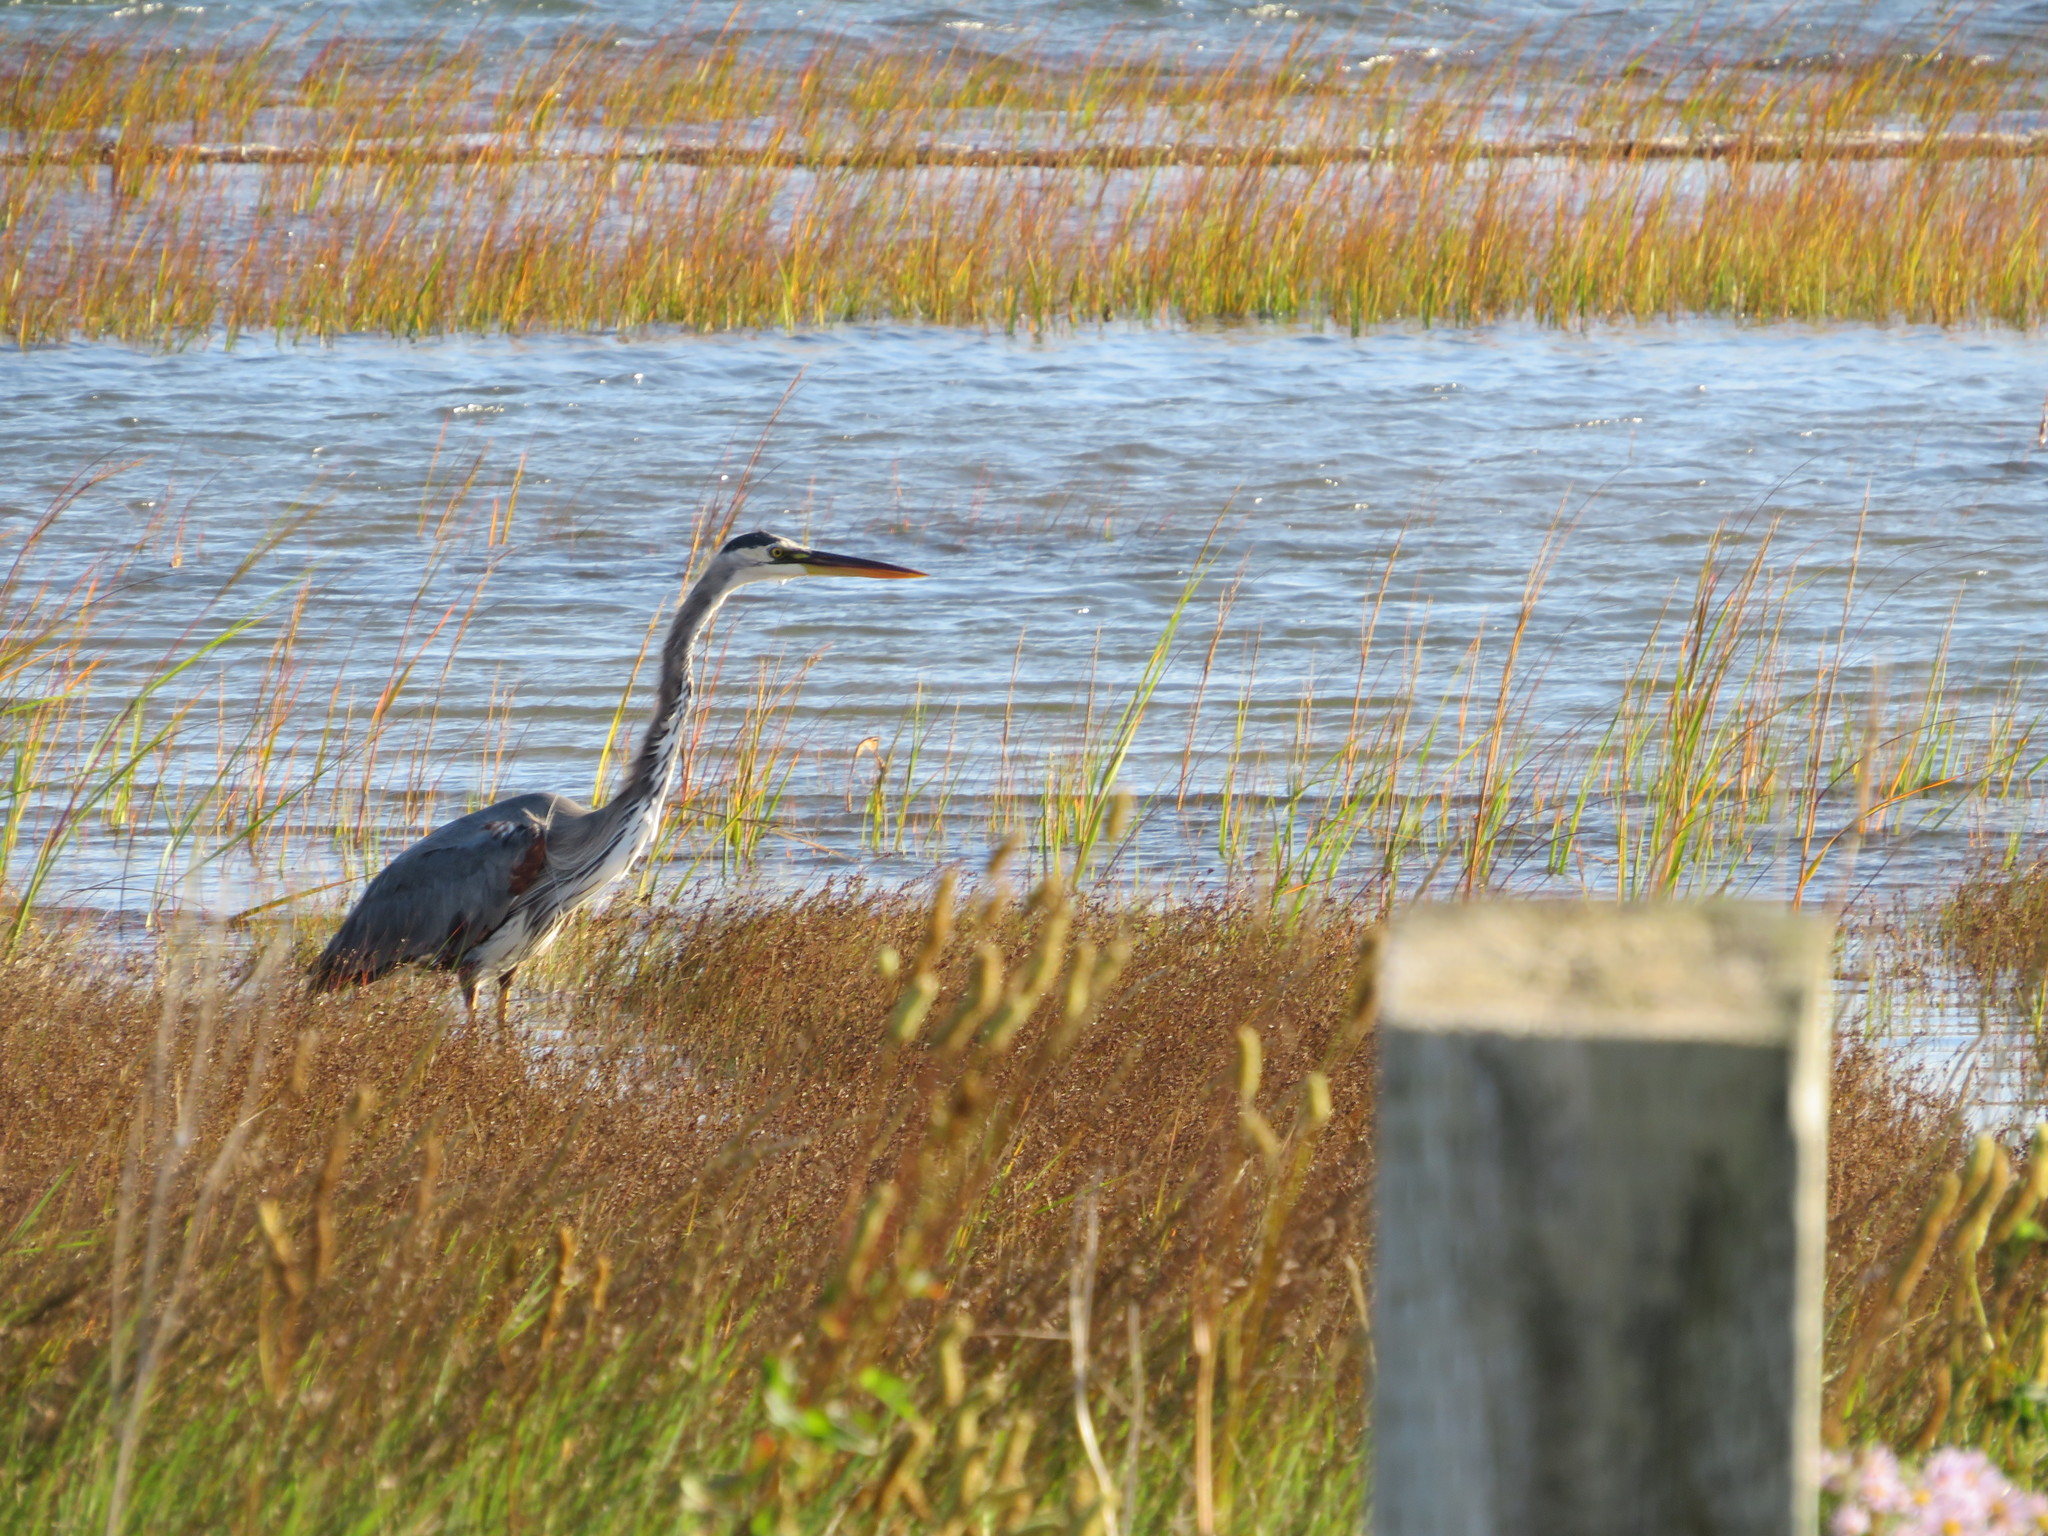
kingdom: Animalia
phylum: Chordata
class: Aves
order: Pelecaniformes
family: Ardeidae
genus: Ardea
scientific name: Ardea herodias
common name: Great blue heron
